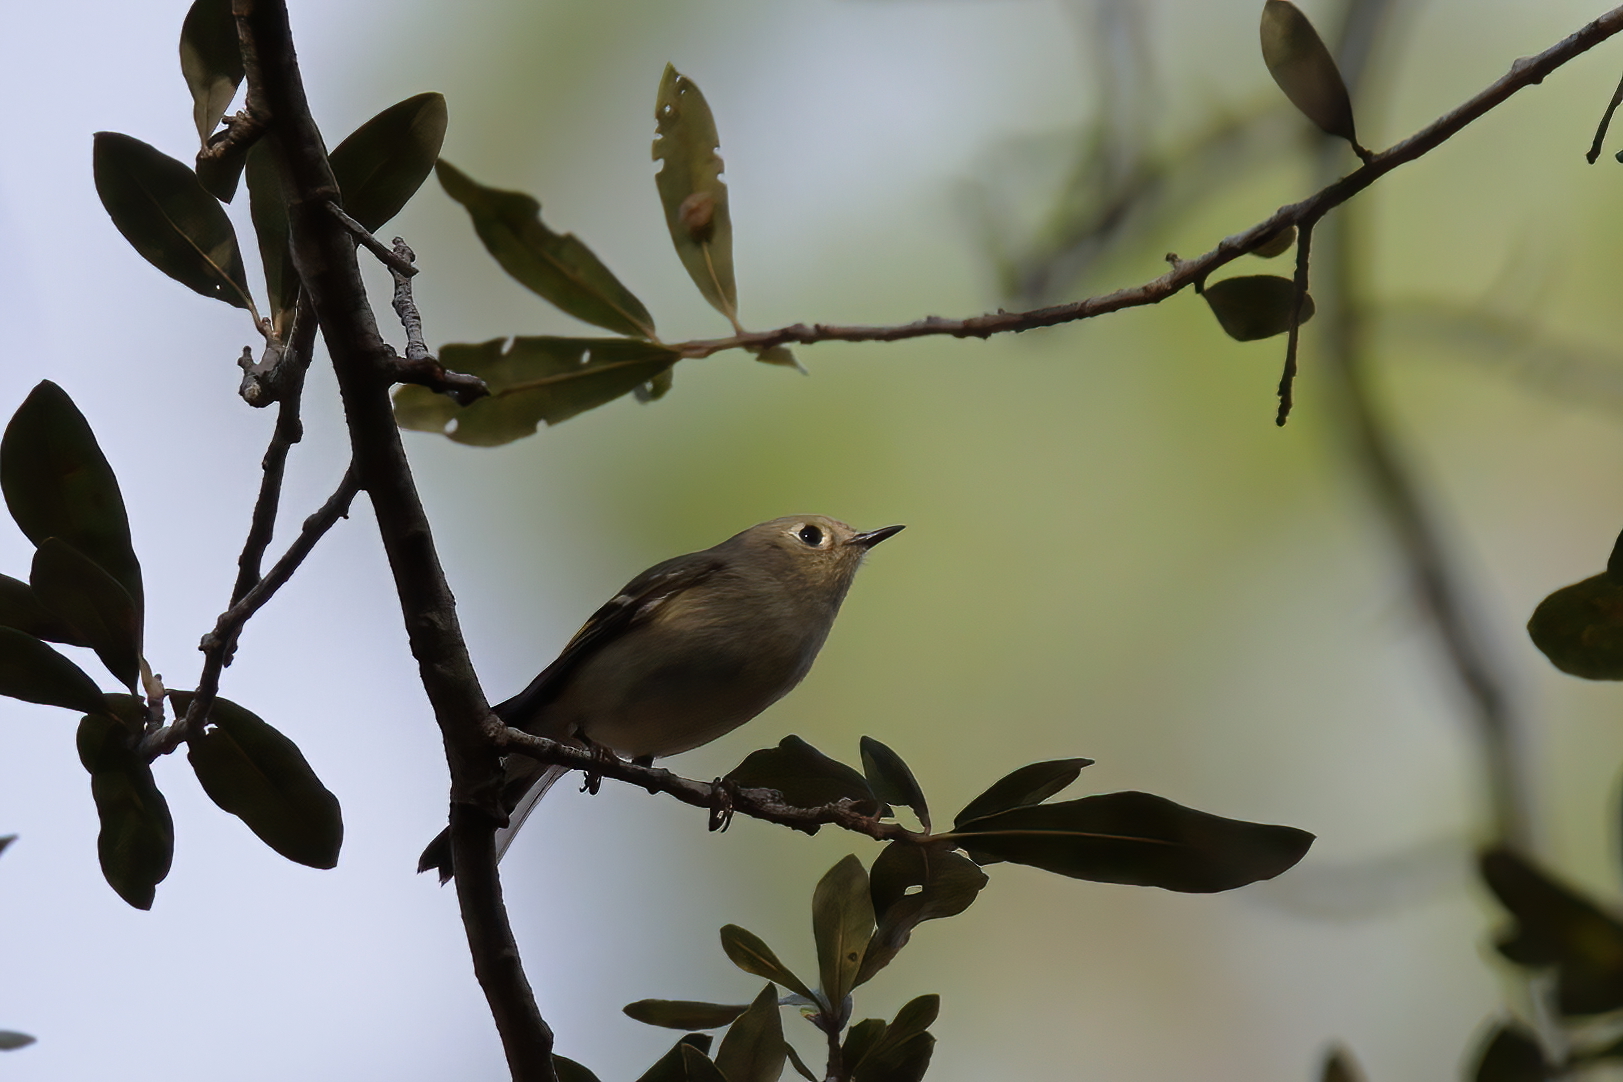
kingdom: Animalia
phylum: Chordata
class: Aves
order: Passeriformes
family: Regulidae
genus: Regulus
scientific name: Regulus calendula
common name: Ruby-crowned kinglet
